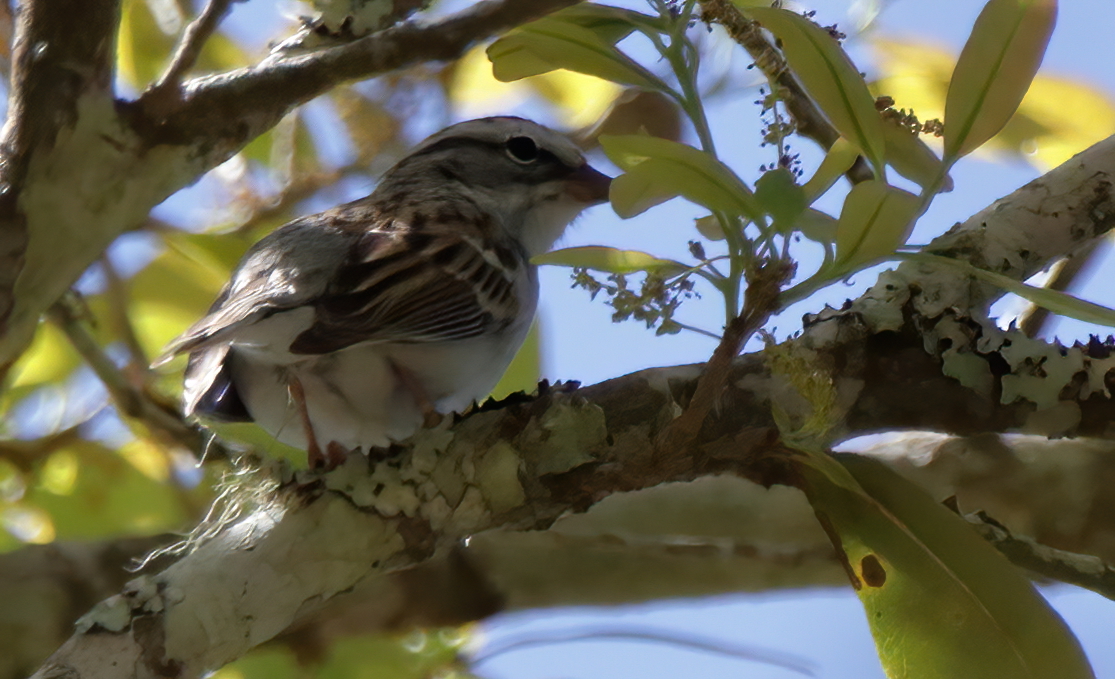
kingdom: Animalia
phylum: Chordata
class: Aves
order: Passeriformes
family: Passerellidae
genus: Spizella
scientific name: Spizella passerina
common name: Chipping sparrow
